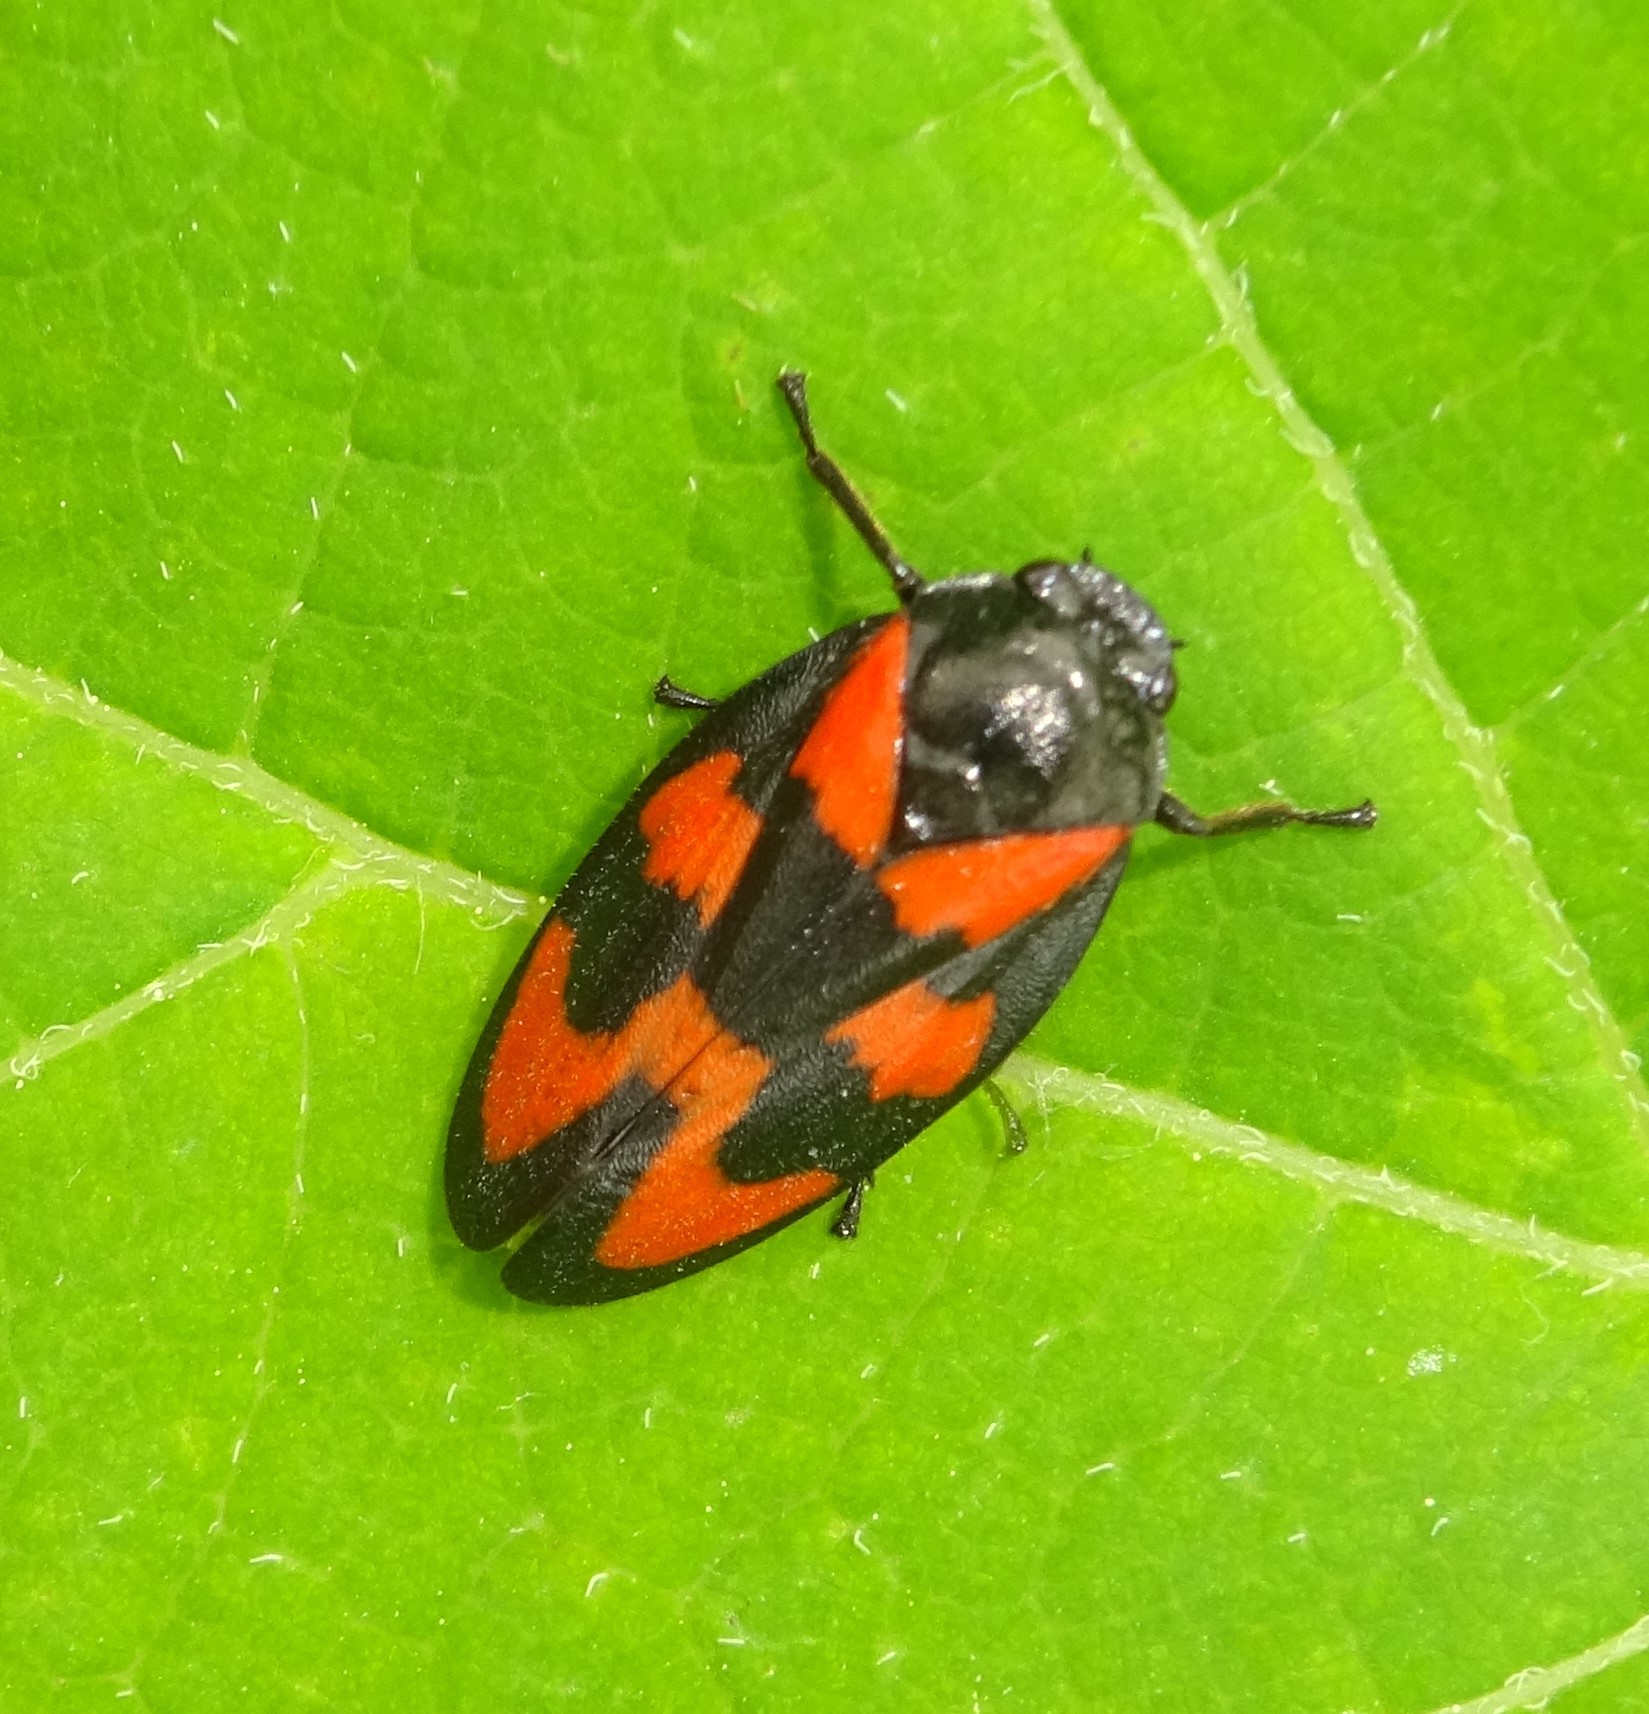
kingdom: Animalia
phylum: Arthropoda
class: Insecta
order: Hemiptera
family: Cercopidae
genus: Cercopis
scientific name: Cercopis vulnerata
